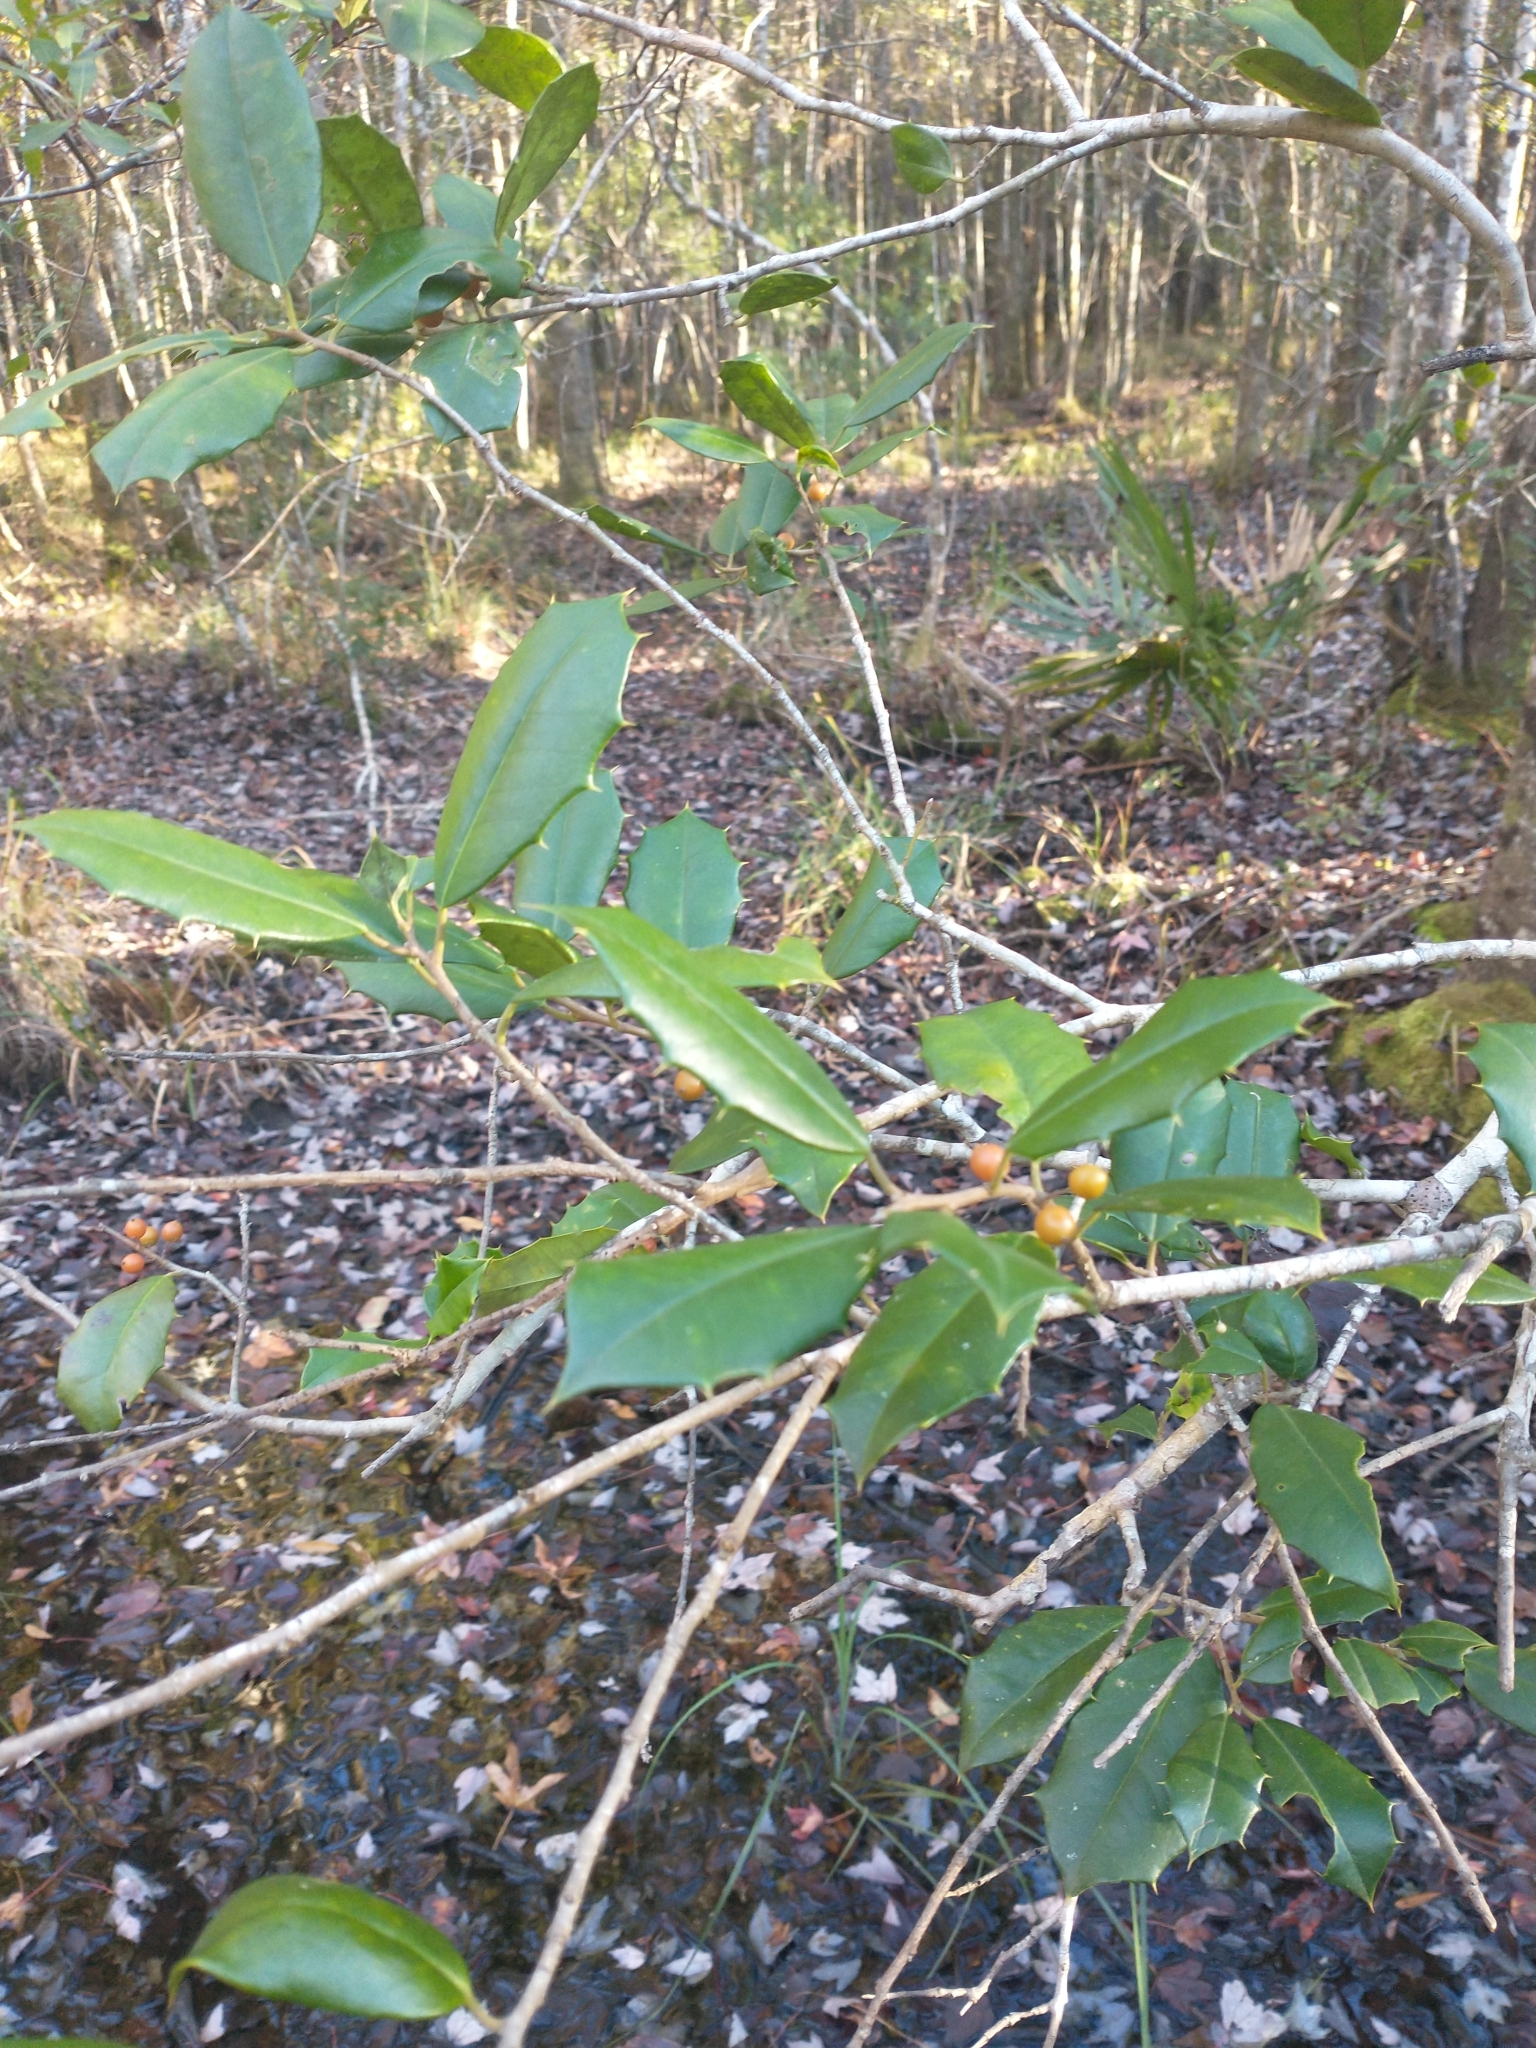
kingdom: Plantae
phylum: Tracheophyta
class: Magnoliopsida
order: Aquifoliales
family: Aquifoliaceae
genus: Ilex
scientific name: Ilex opaca
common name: American holly
